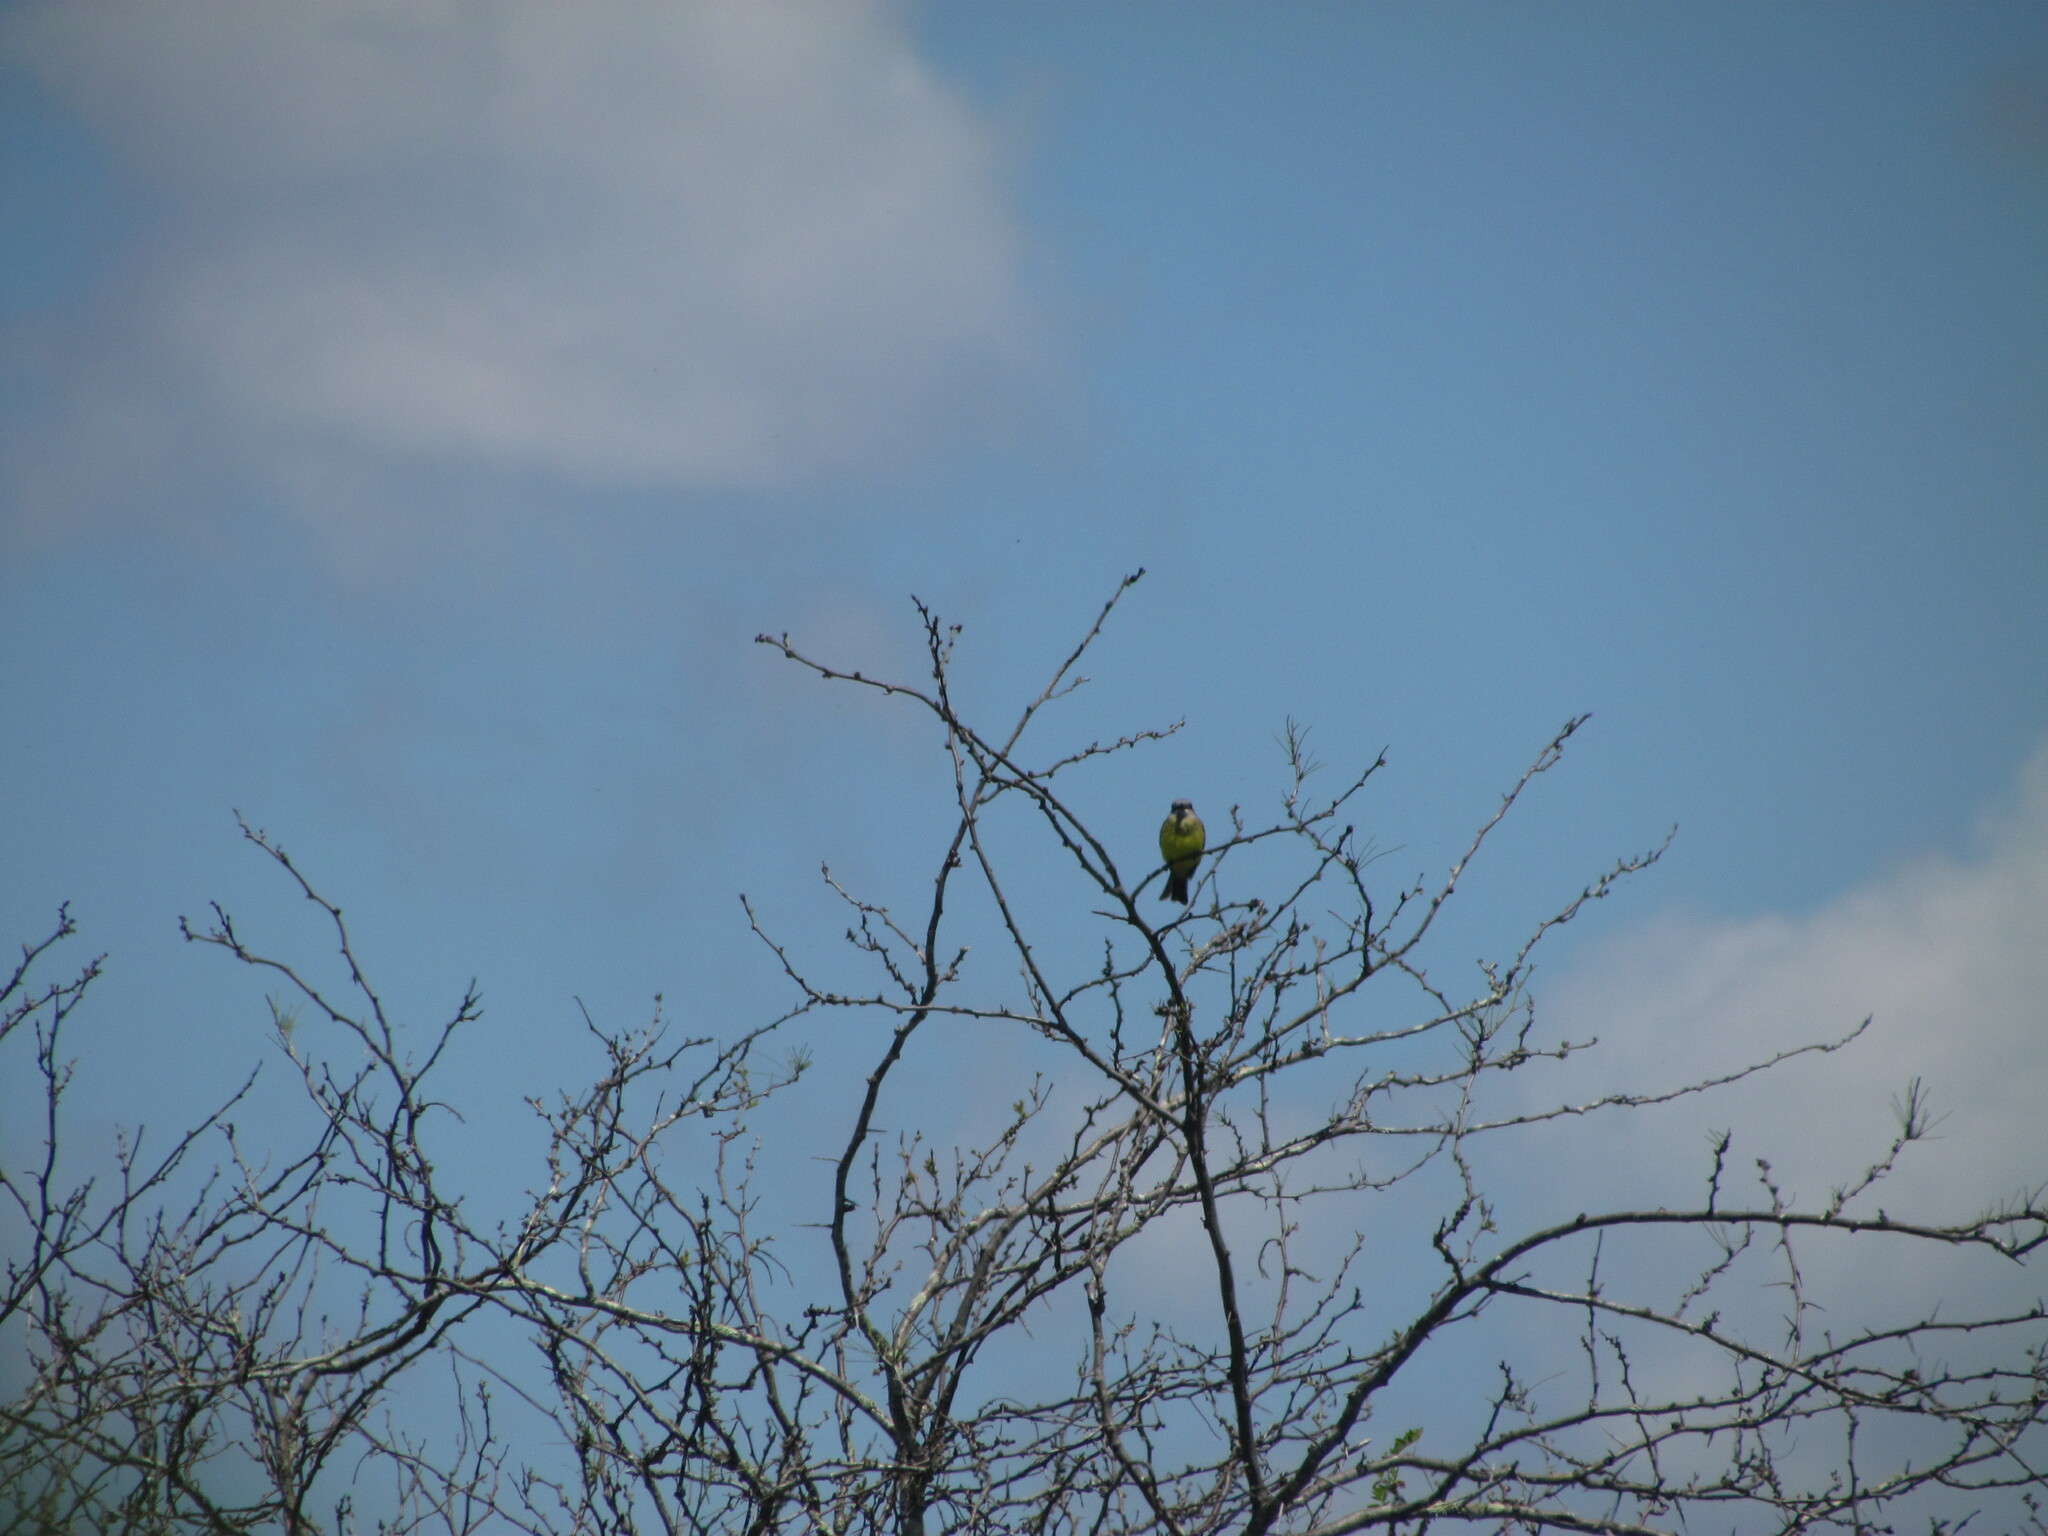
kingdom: Animalia
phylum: Chordata
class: Aves
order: Passeriformes
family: Tyrannidae
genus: Tyrannus
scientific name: Tyrannus melancholicus
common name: Tropical kingbird
